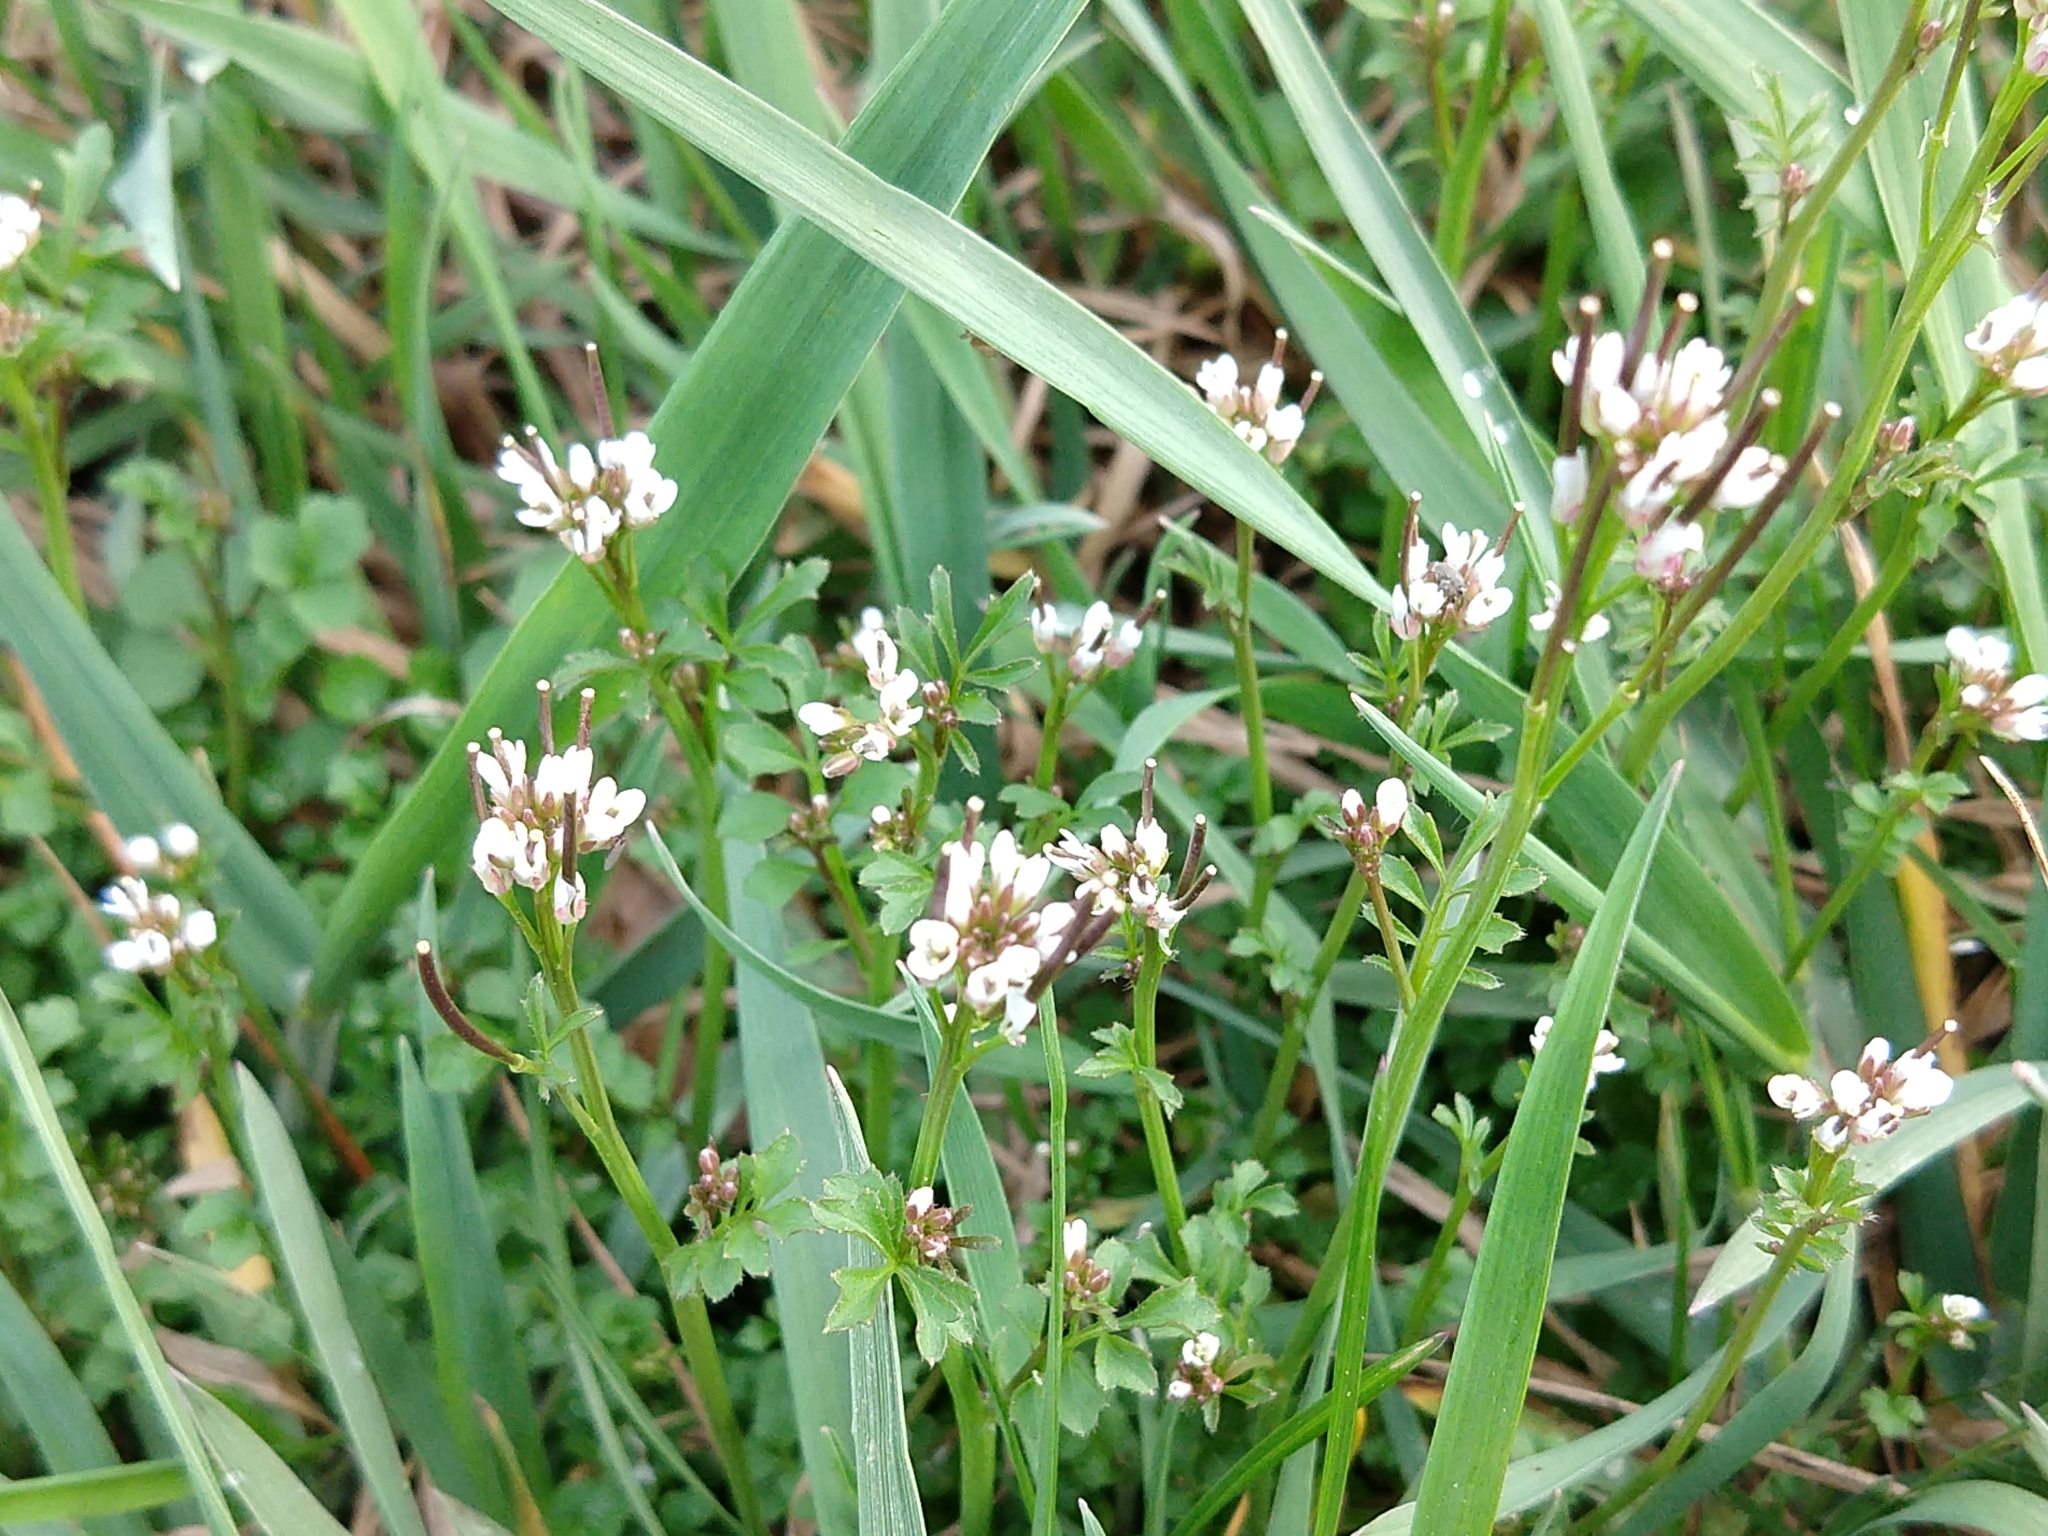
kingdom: Plantae
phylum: Tracheophyta
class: Magnoliopsida
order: Brassicales
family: Brassicaceae
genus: Cardamine
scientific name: Cardamine hirsuta
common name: Hairy bittercress
